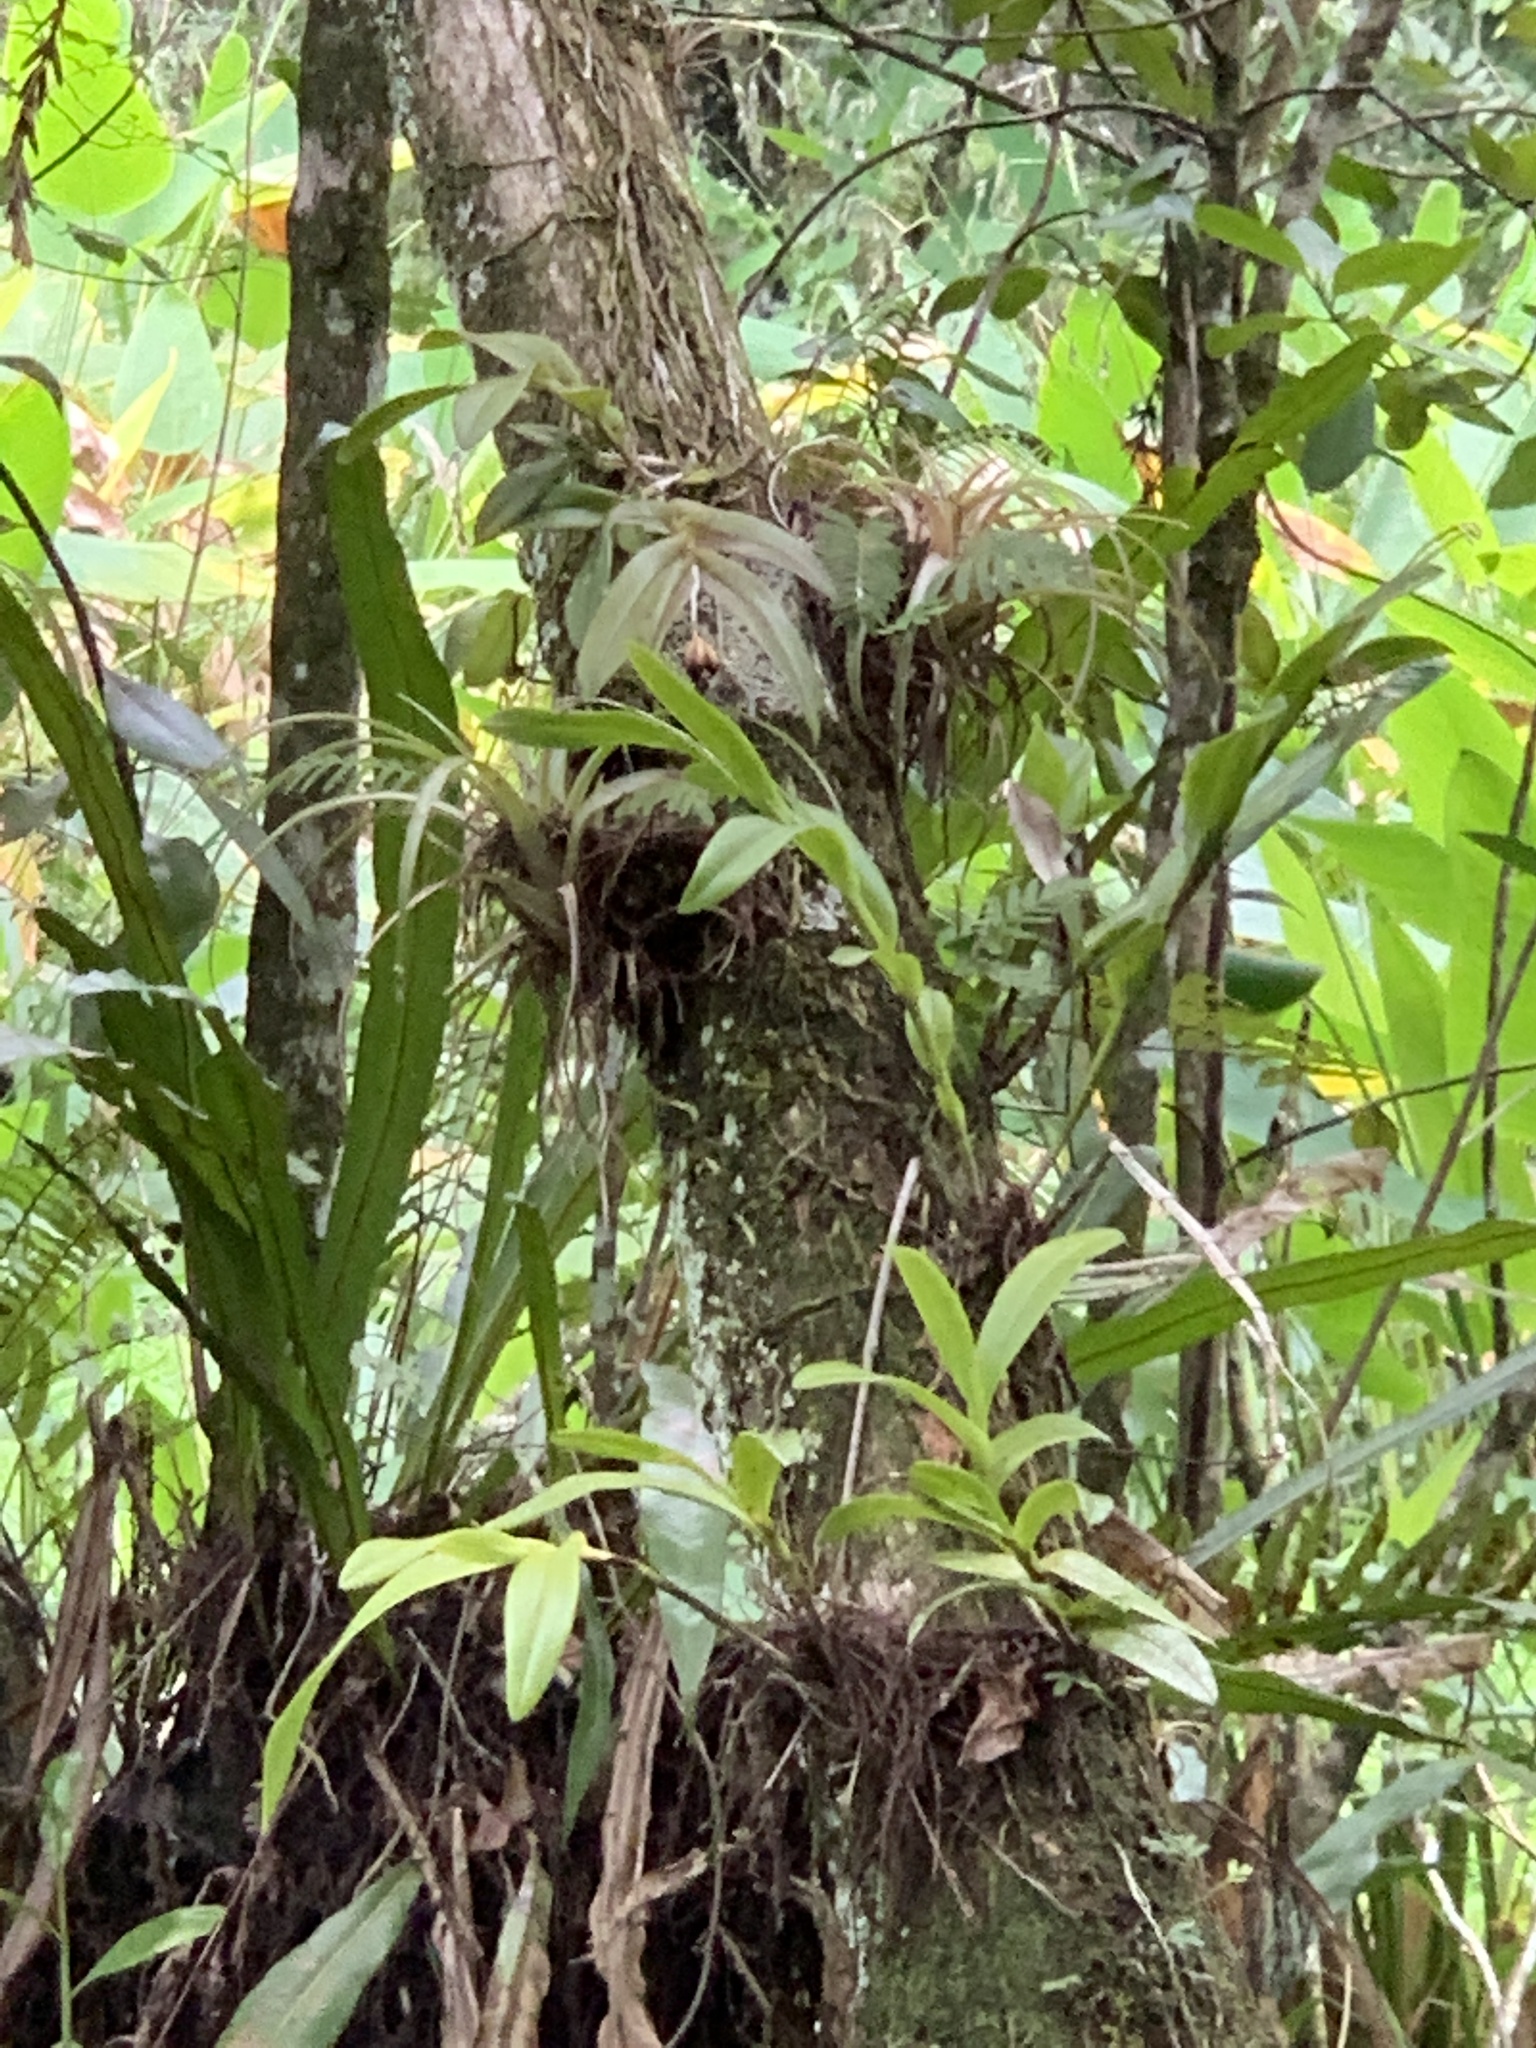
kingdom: Plantae
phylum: Tracheophyta
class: Liliopsida
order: Asparagales
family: Orchidaceae
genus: Epidendrum
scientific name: Epidendrum amphistomum
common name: Big-mouth star orchid
